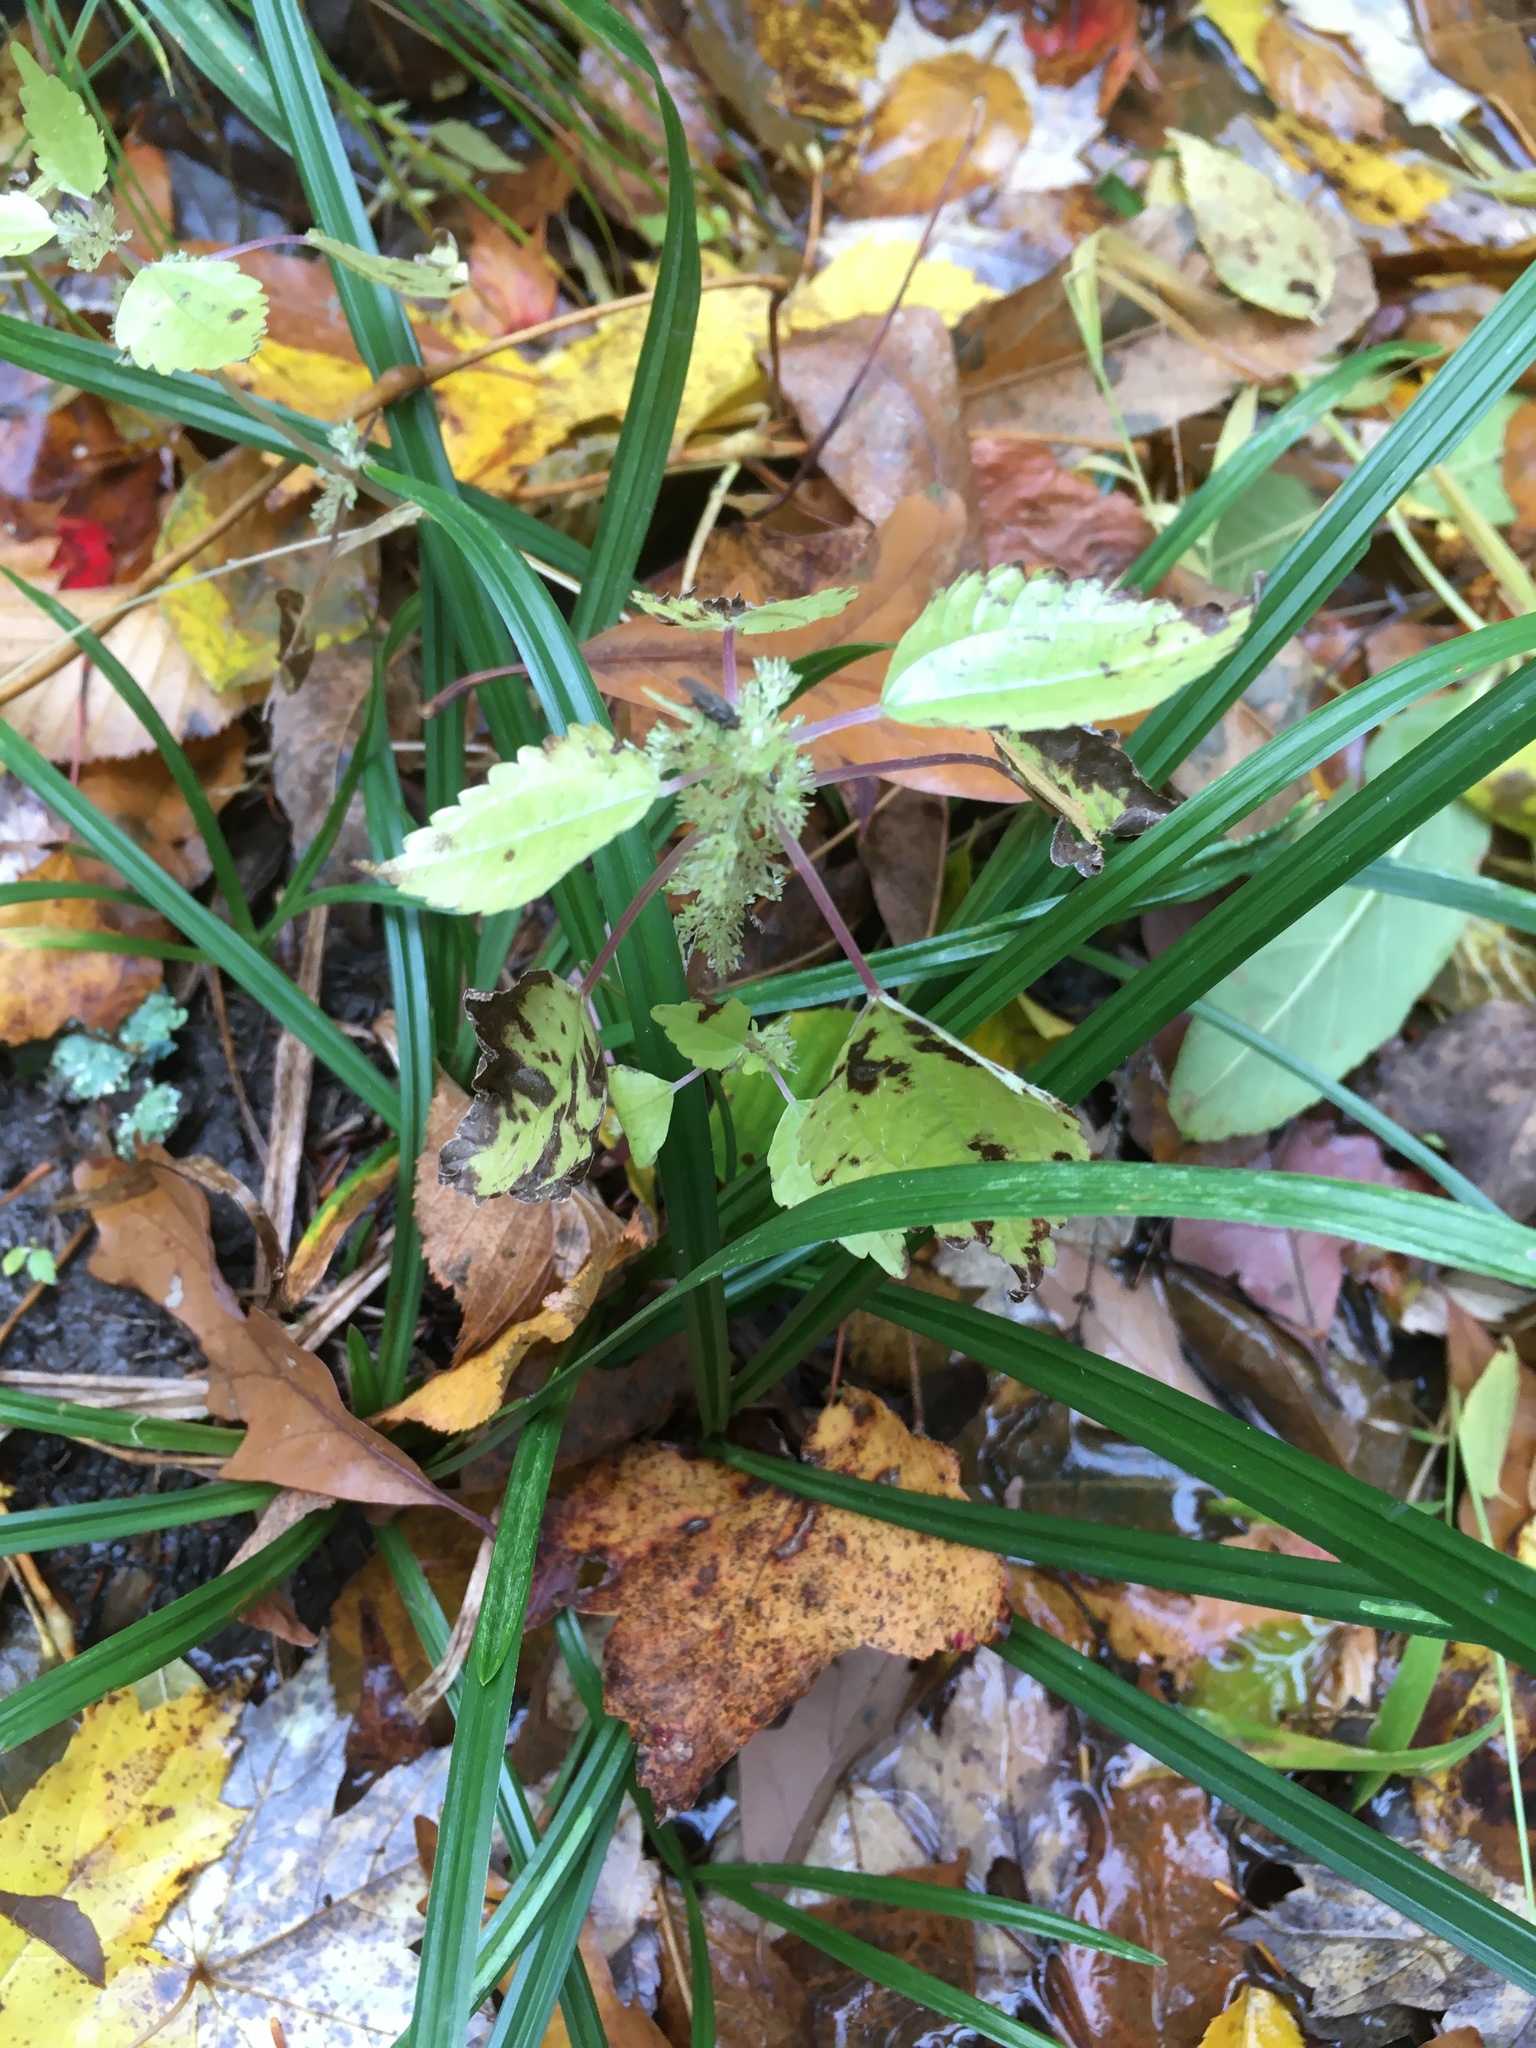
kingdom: Plantae
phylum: Tracheophyta
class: Magnoliopsida
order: Rosales
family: Urticaceae
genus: Pilea
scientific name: Pilea pumila
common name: Clearweed
